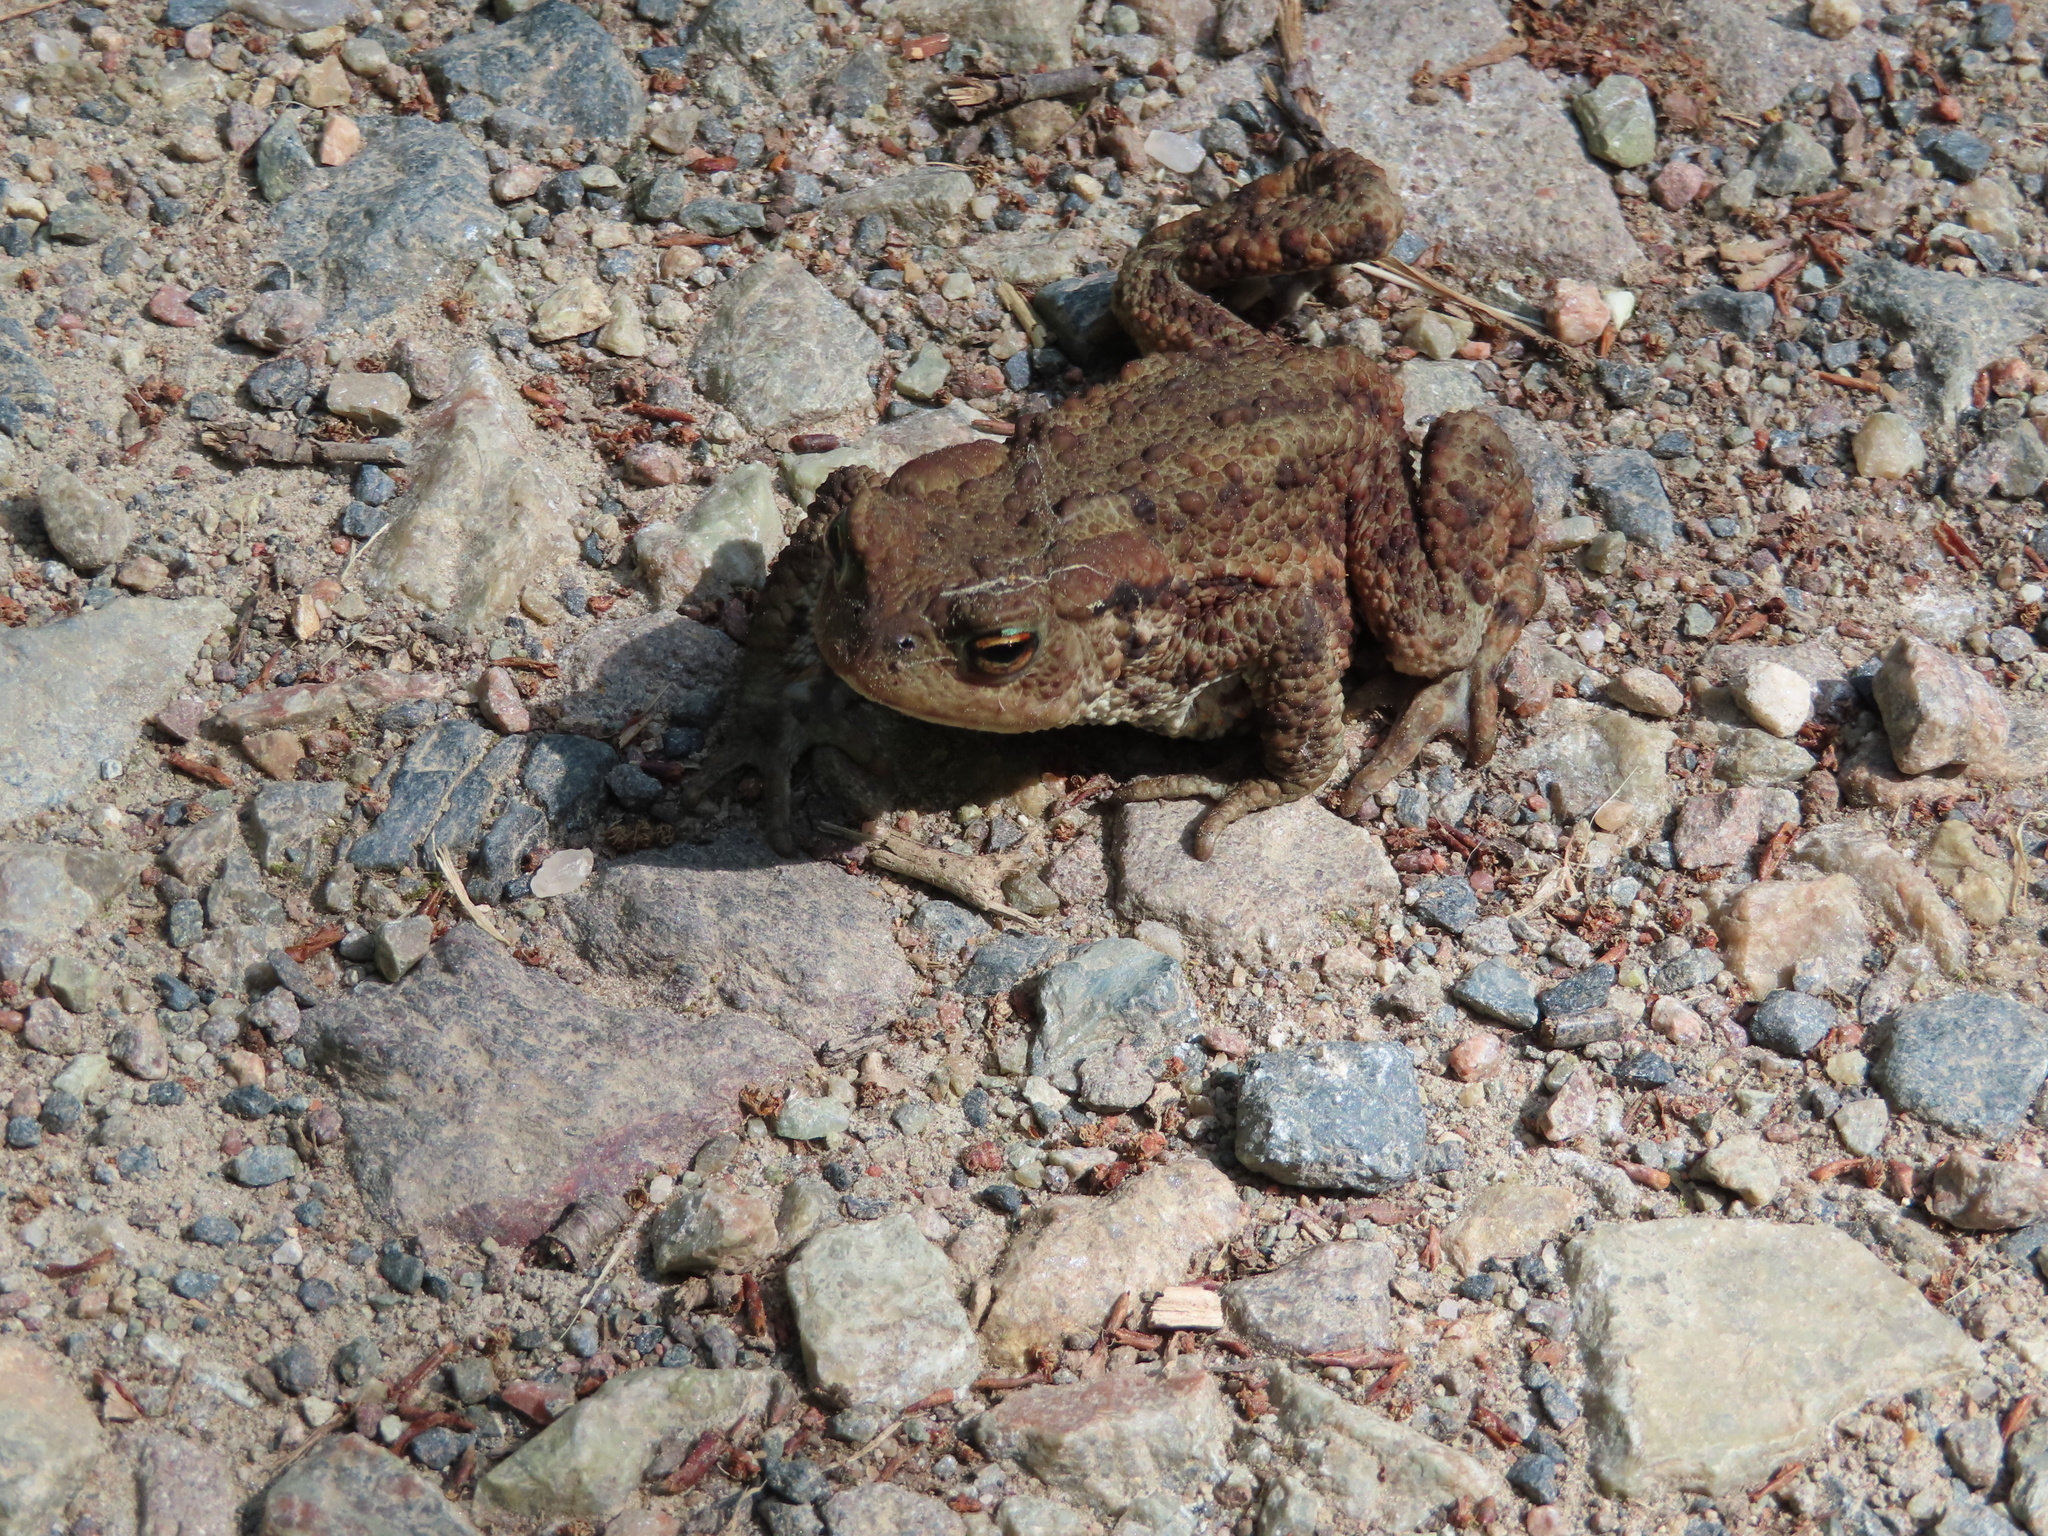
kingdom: Animalia
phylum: Chordata
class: Amphibia
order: Anura
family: Bufonidae
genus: Bufo
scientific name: Bufo bufo
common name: Common toad
